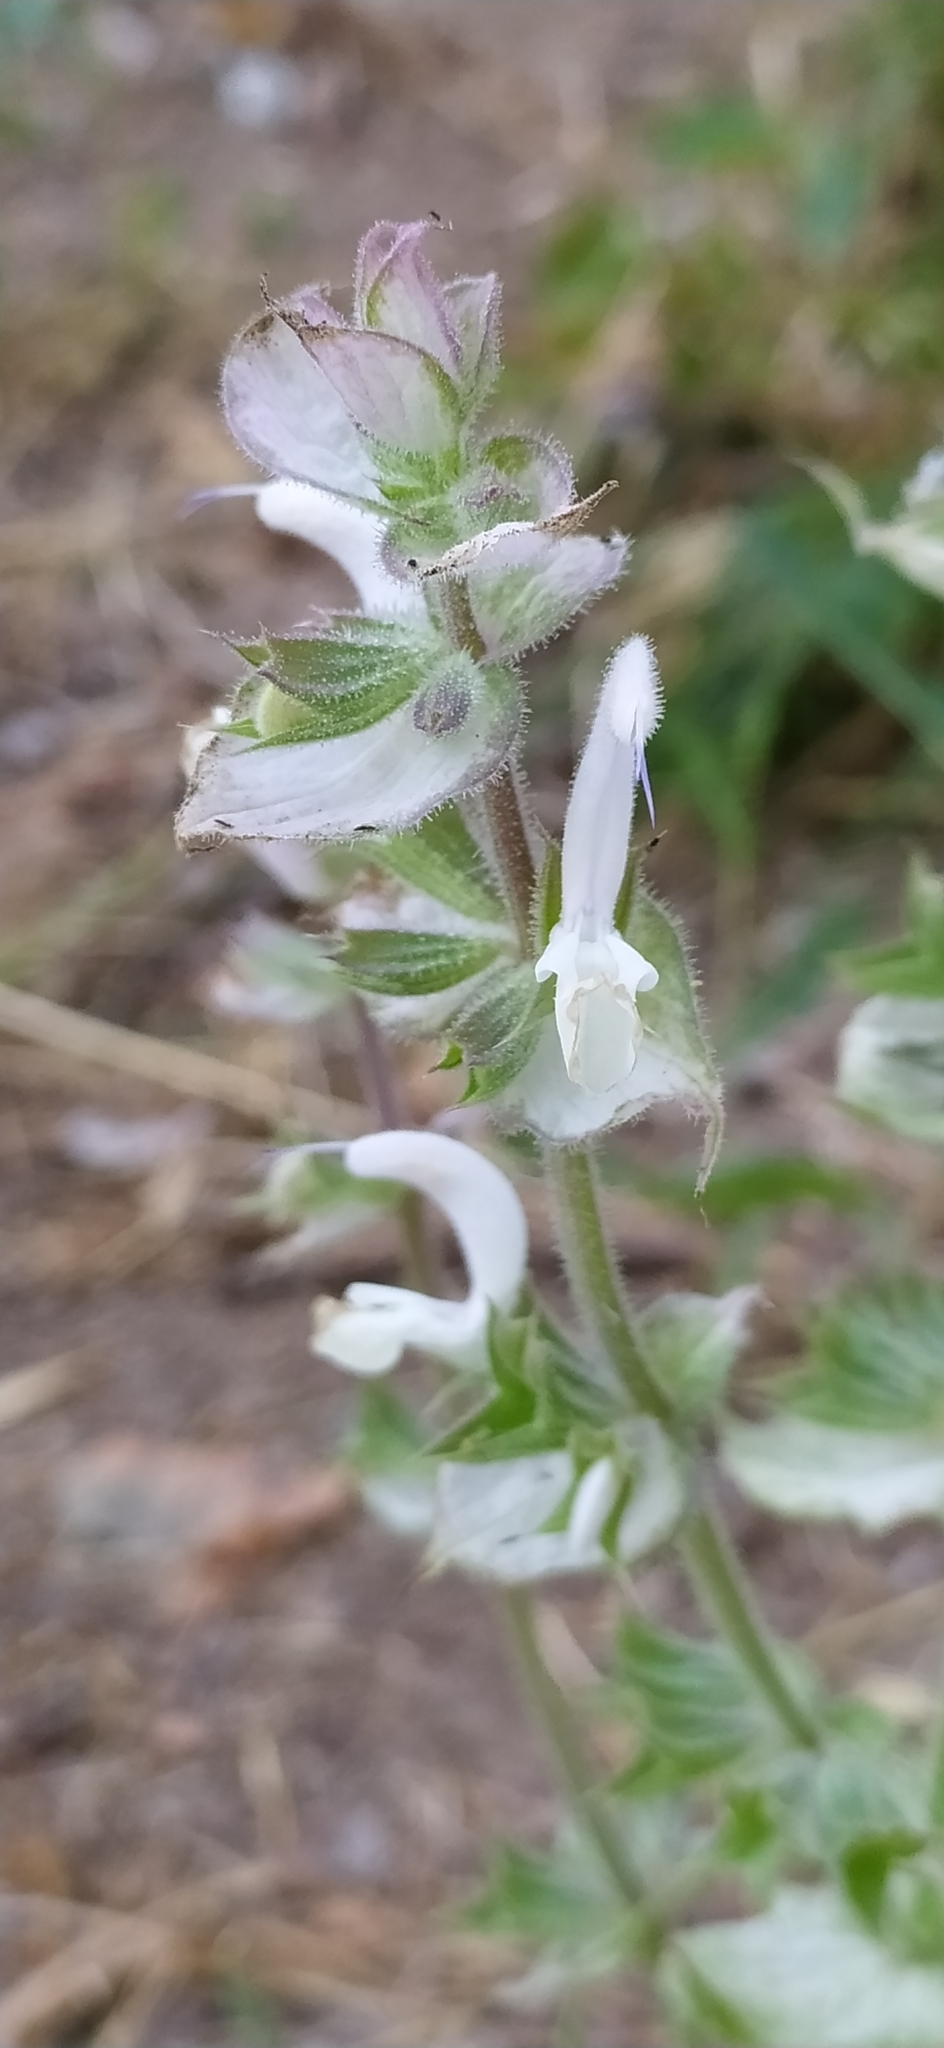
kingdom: Plantae
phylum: Tracheophyta
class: Magnoliopsida
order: Lamiales
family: Lamiaceae
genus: Salvia
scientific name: Salvia sclarea
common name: Clary
